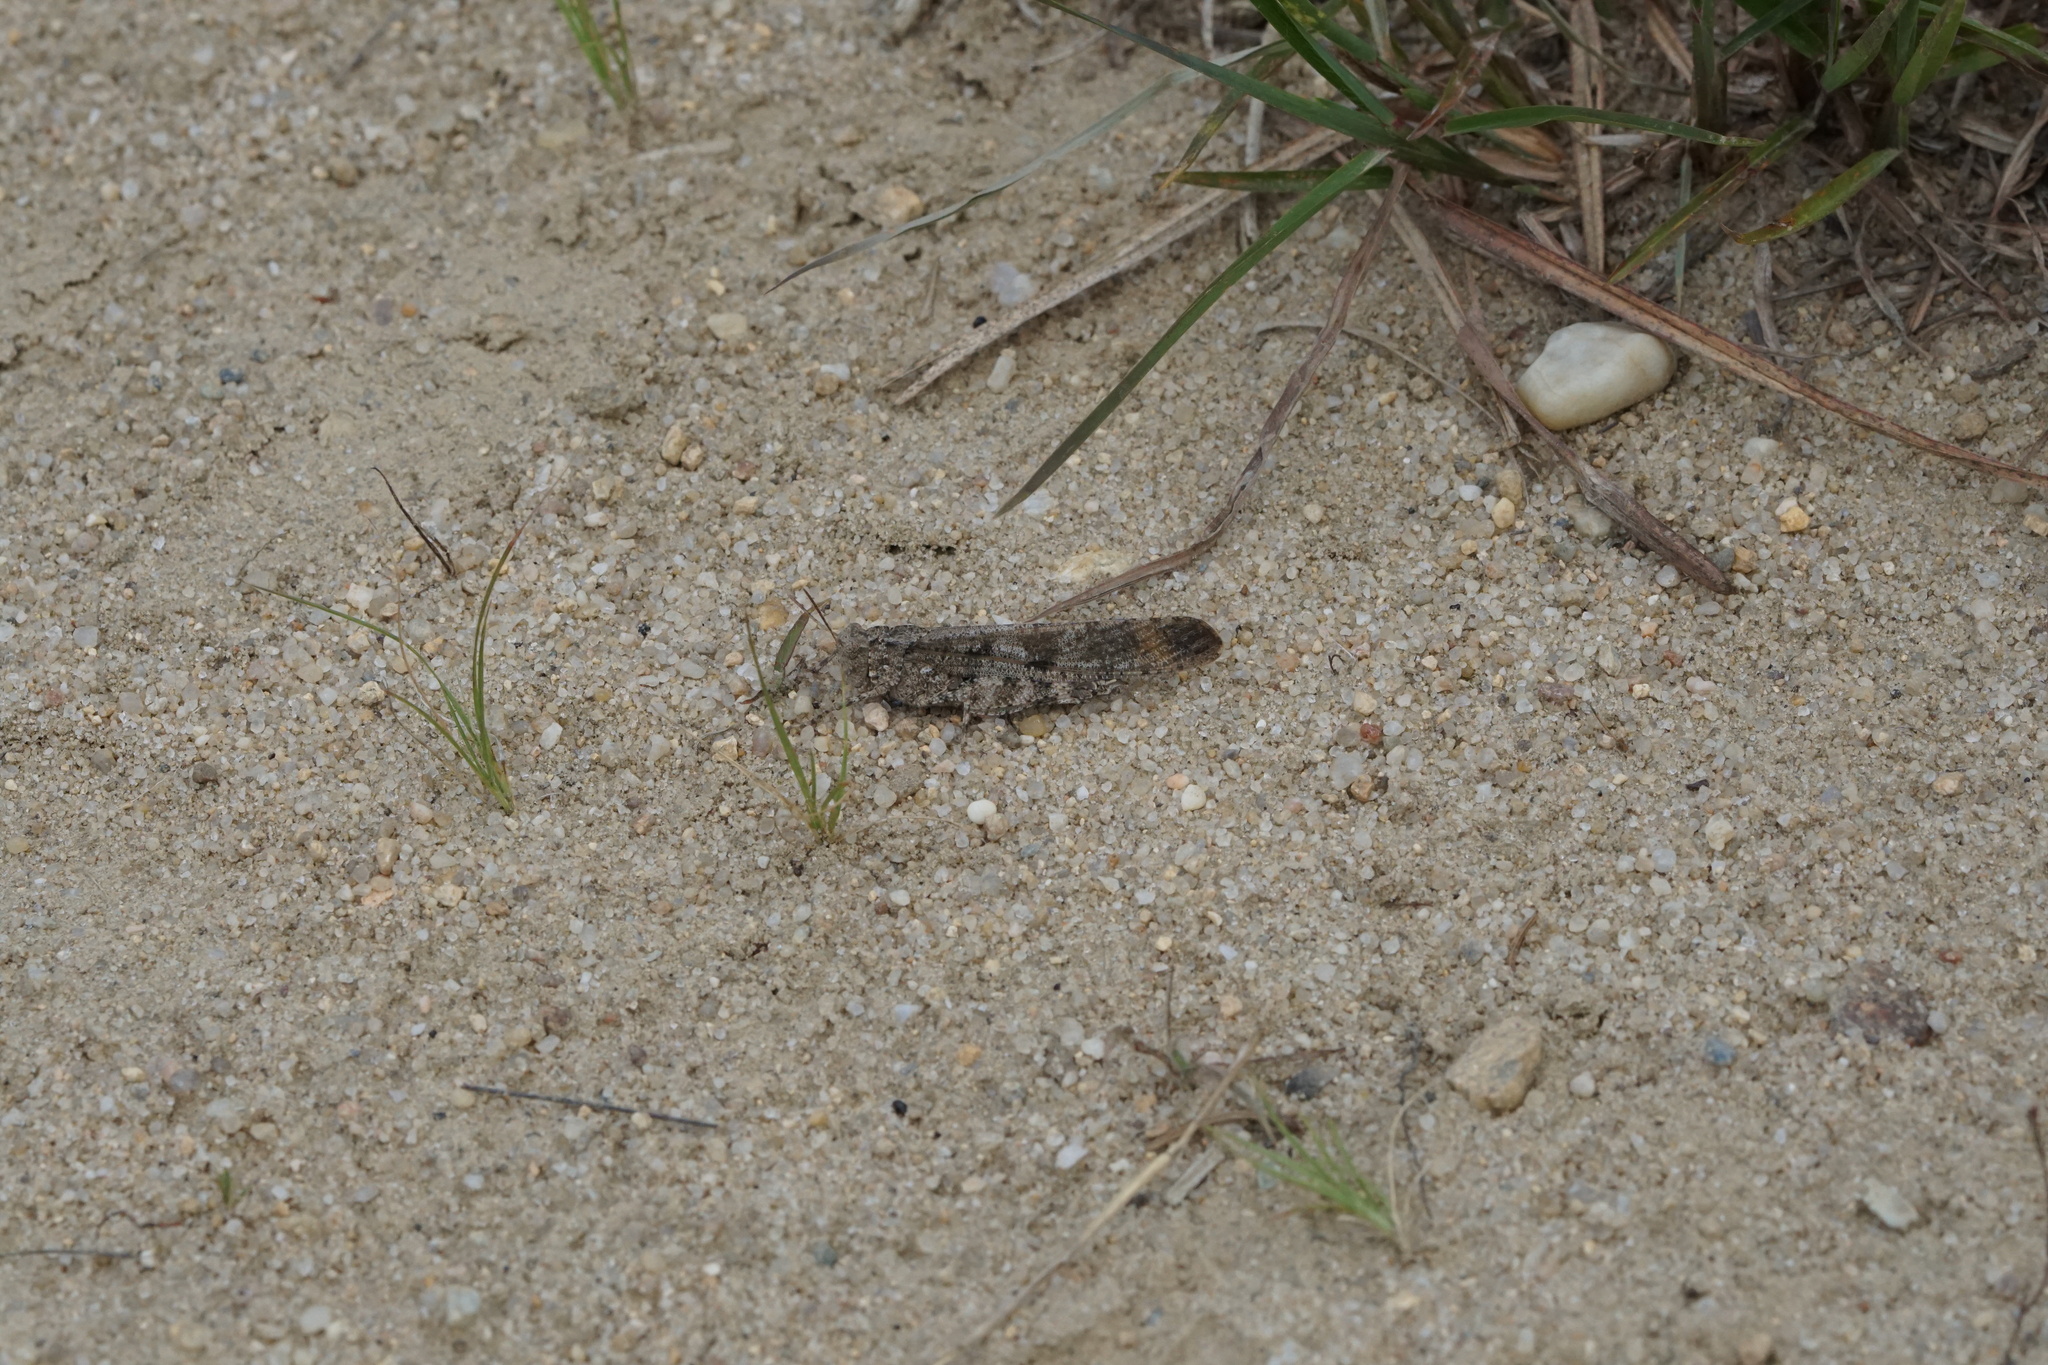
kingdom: Animalia
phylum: Arthropoda
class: Insecta
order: Orthoptera
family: Acrididae
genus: Dissosteira
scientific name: Dissosteira carolina
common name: Carolina grasshopper
